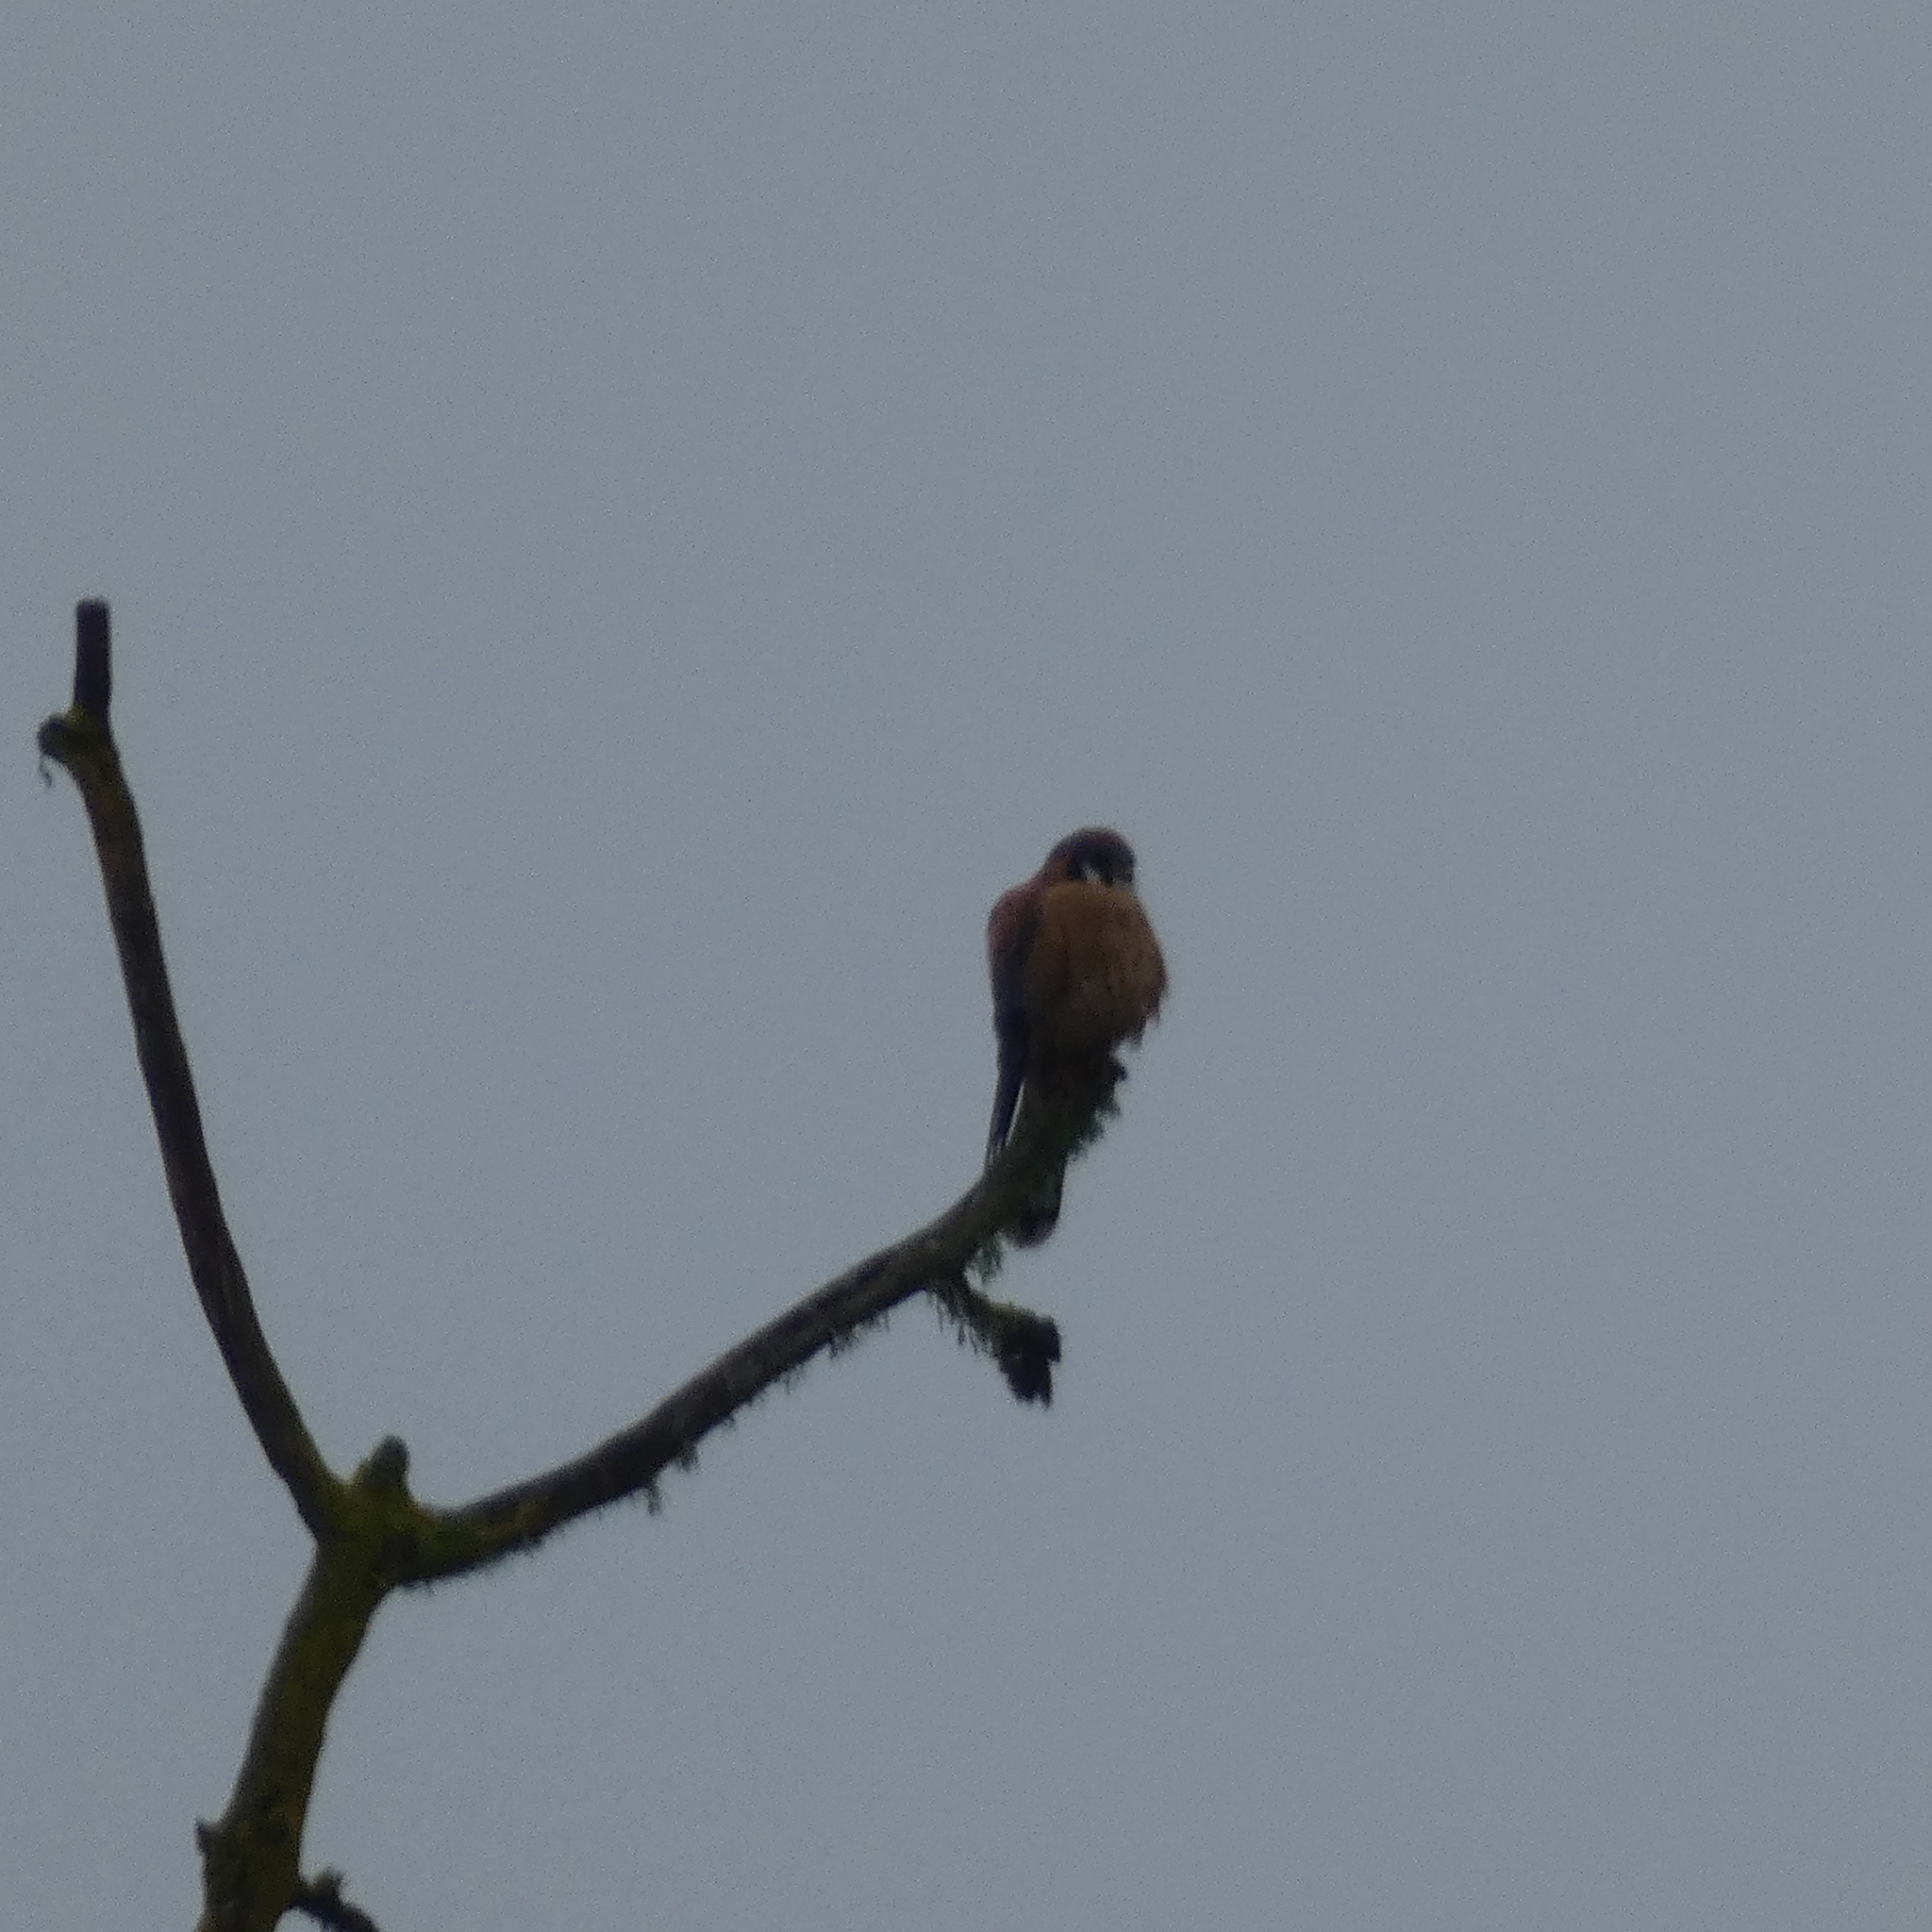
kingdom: Animalia
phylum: Chordata
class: Aves
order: Falconiformes
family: Falconidae
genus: Falco
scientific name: Falco sparverius
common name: American kestrel
